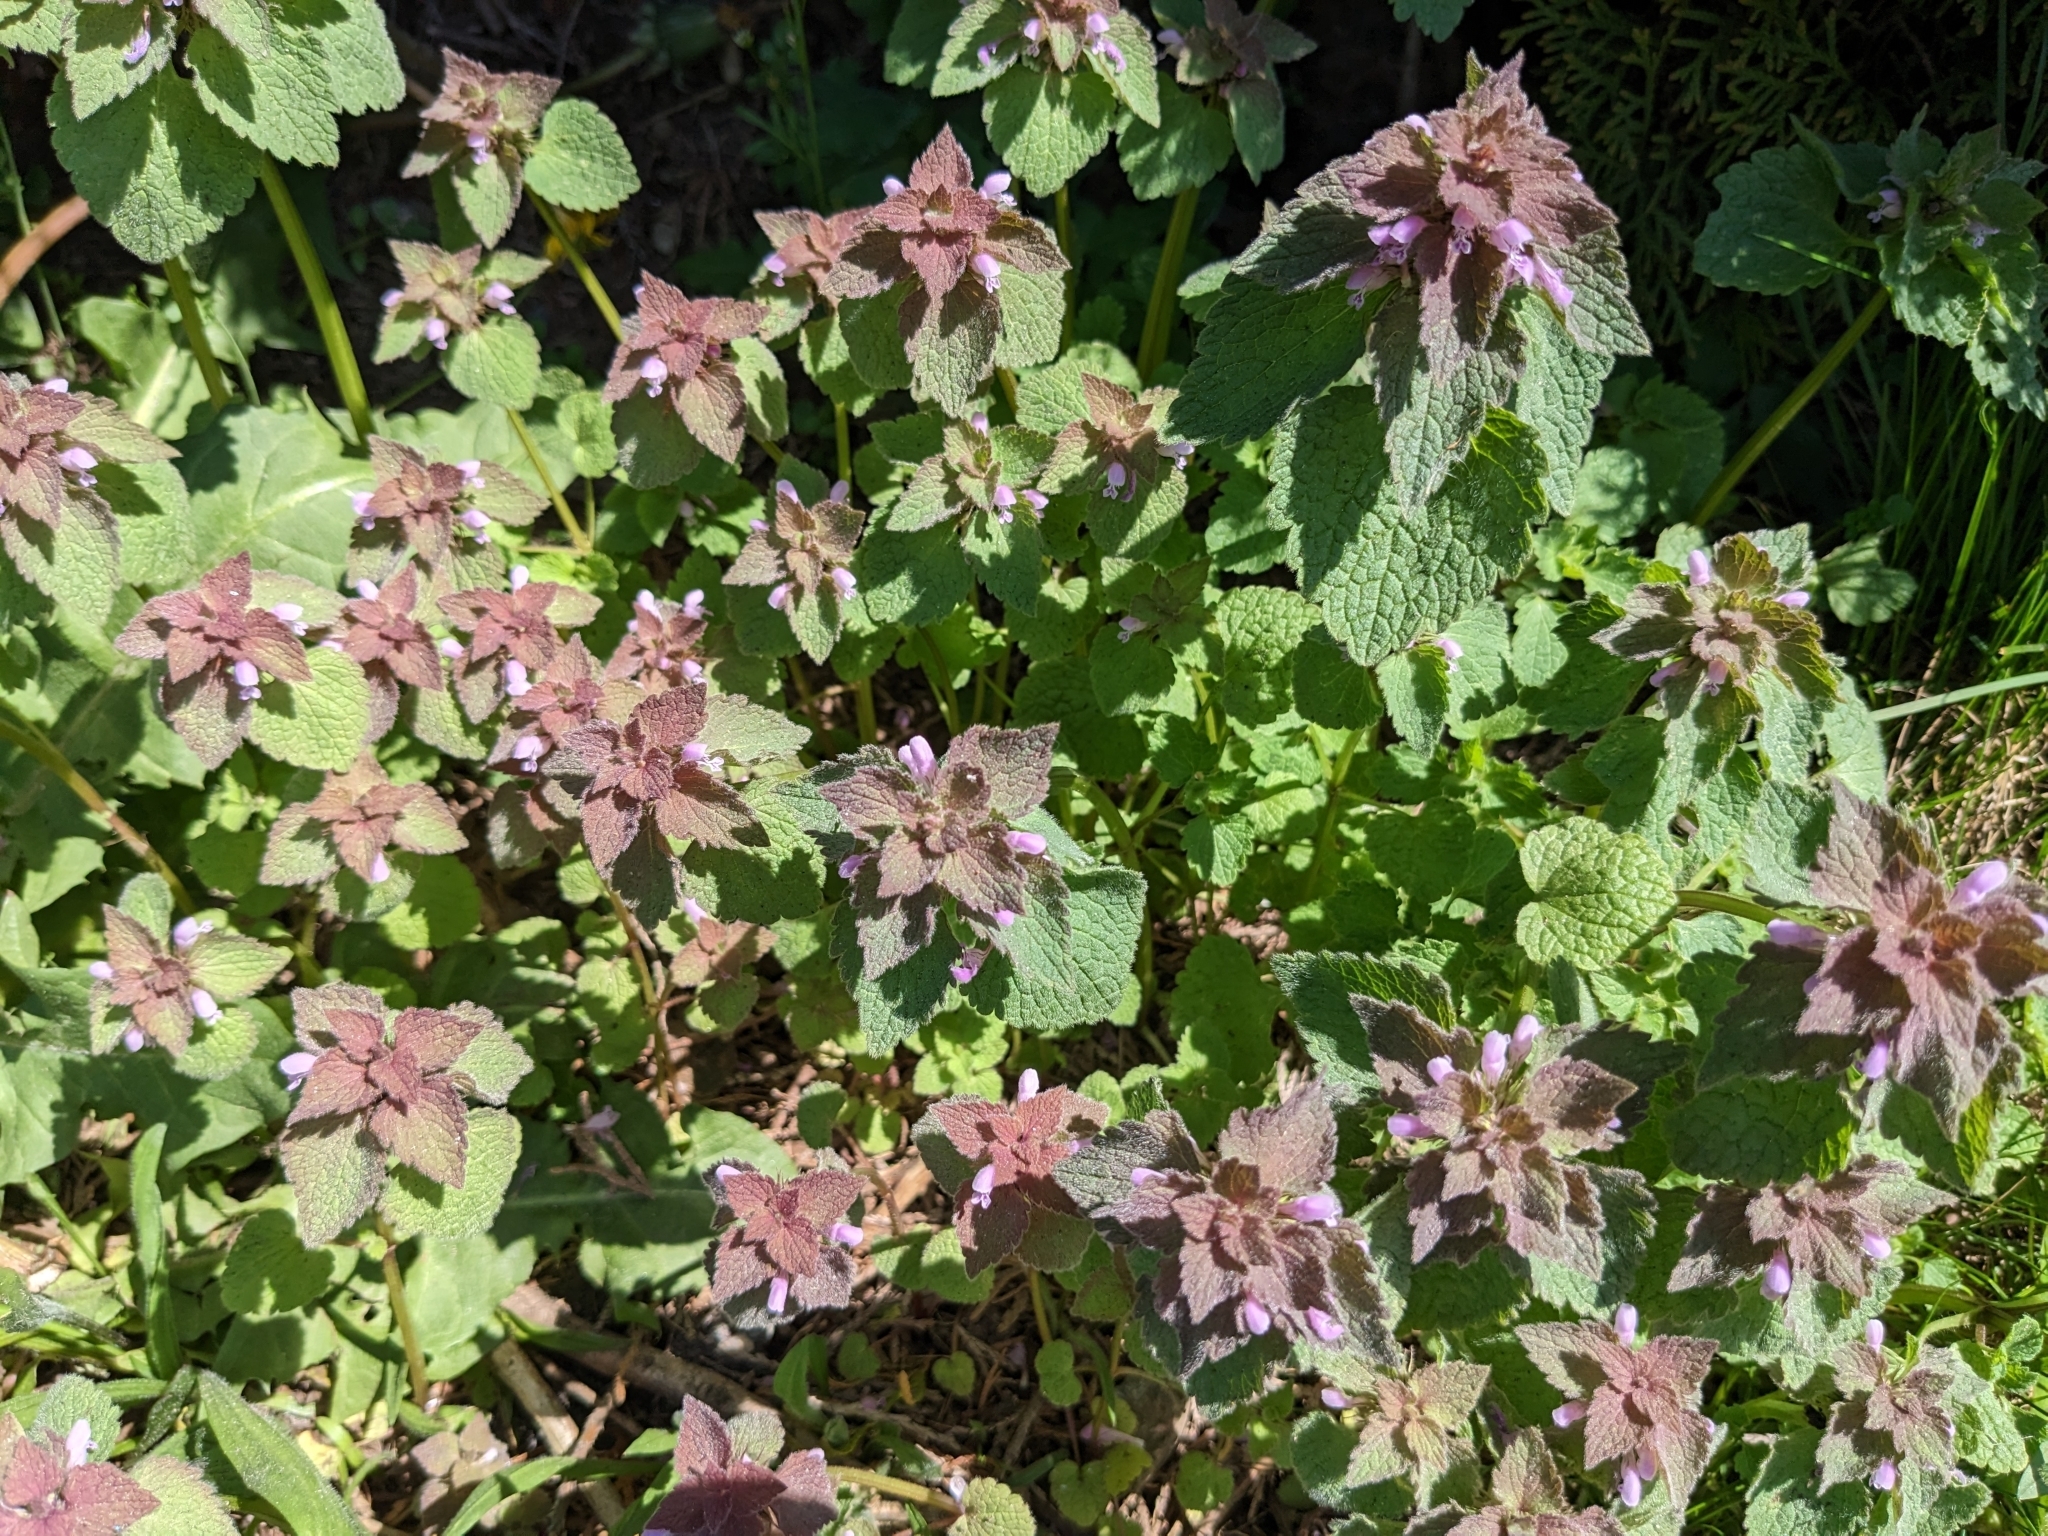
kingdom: Plantae
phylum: Tracheophyta
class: Magnoliopsida
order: Lamiales
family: Lamiaceae
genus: Lamium
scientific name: Lamium purpureum
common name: Red dead-nettle
